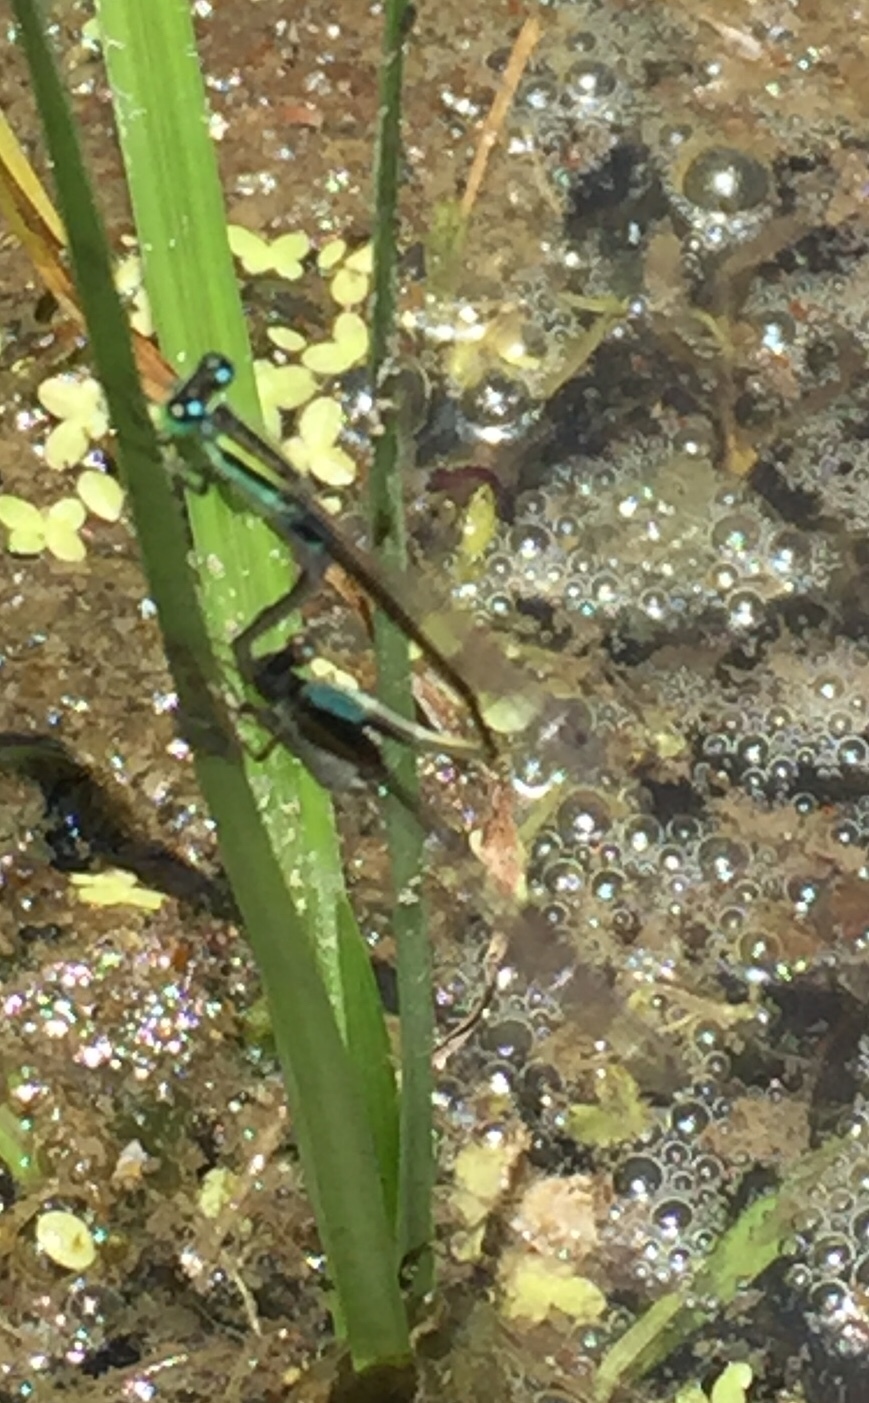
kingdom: Animalia
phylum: Arthropoda
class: Insecta
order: Odonata
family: Coenagrionidae
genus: Ischnura
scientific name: Ischnura senegalensis
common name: Tropical bluetail
